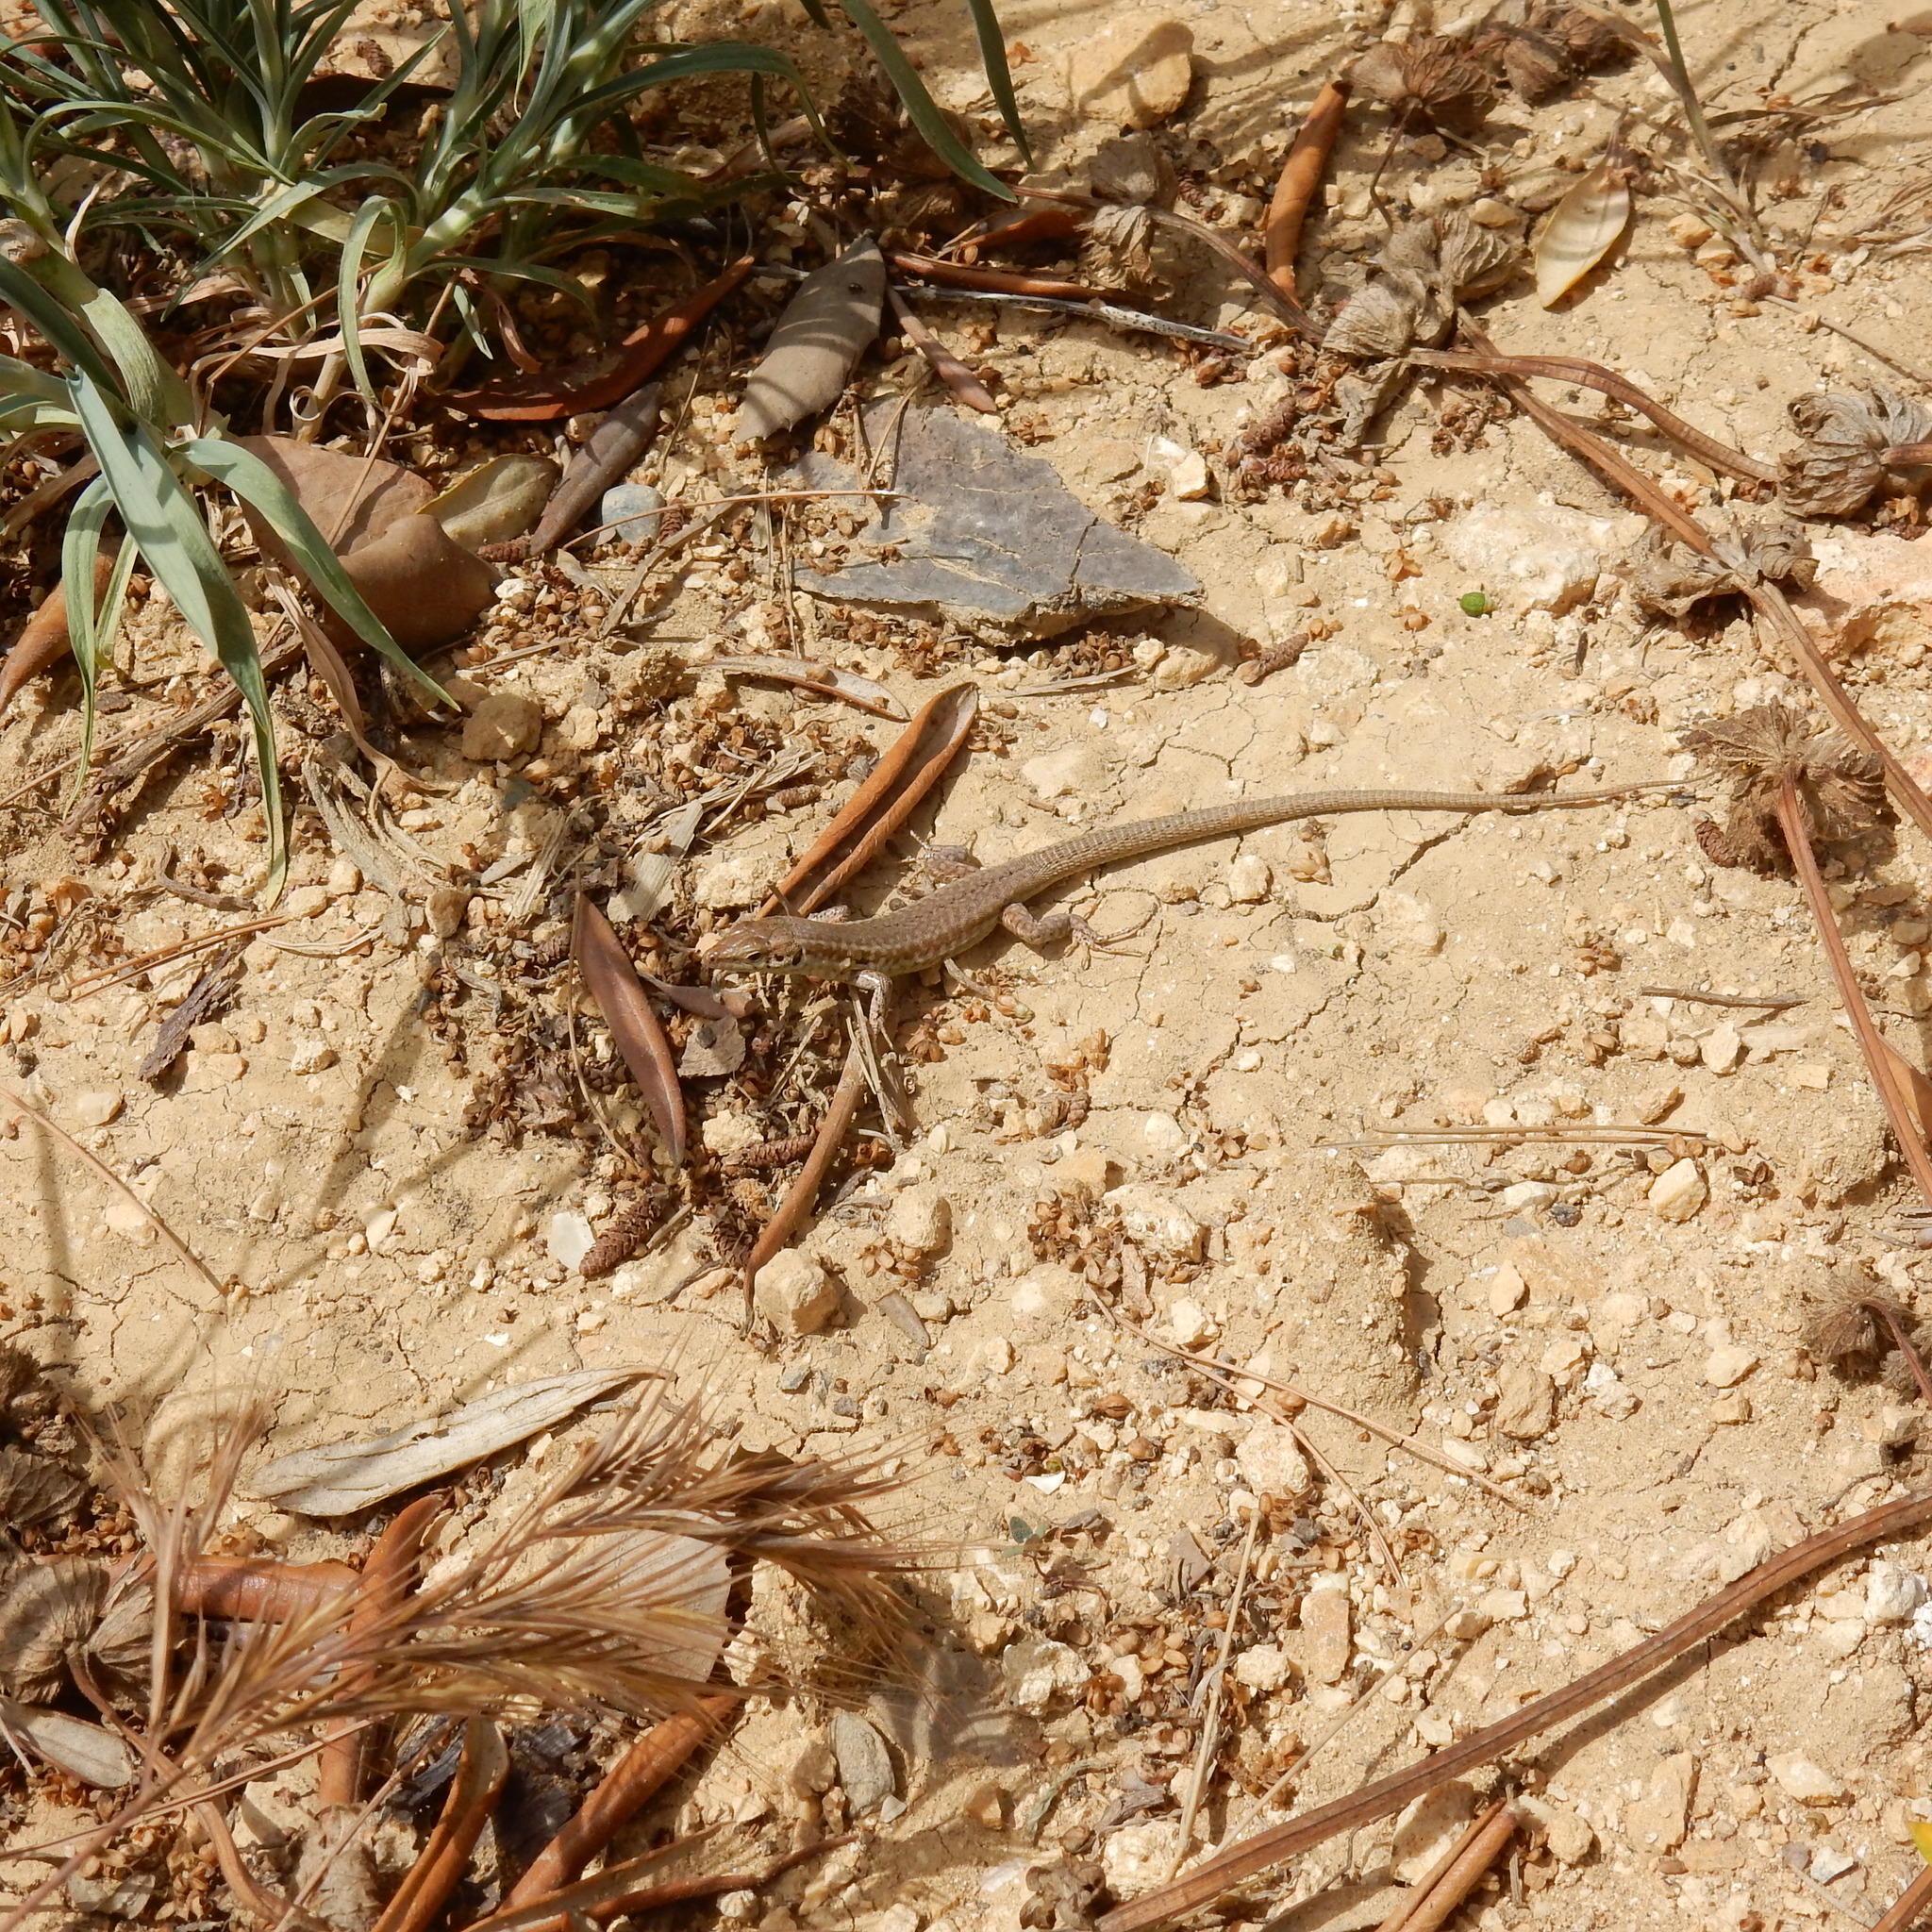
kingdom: Animalia
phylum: Chordata
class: Squamata
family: Lacertidae
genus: Podarcis
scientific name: Podarcis filfolensis
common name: Maltese wall lizard
